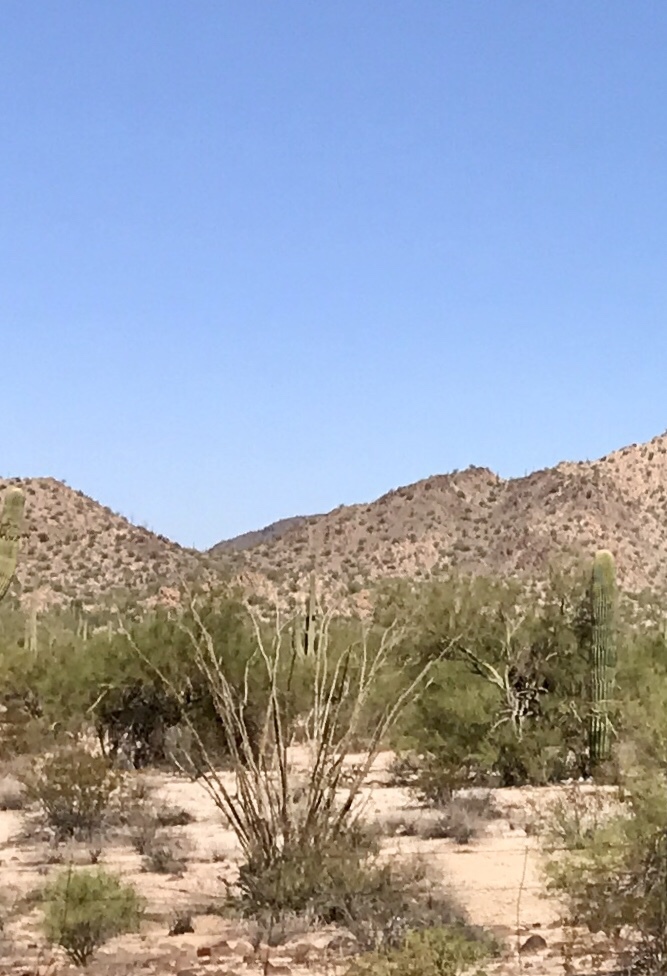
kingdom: Plantae
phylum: Tracheophyta
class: Magnoliopsida
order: Ericales
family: Fouquieriaceae
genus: Fouquieria
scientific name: Fouquieria splendens
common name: Vine-cactus
